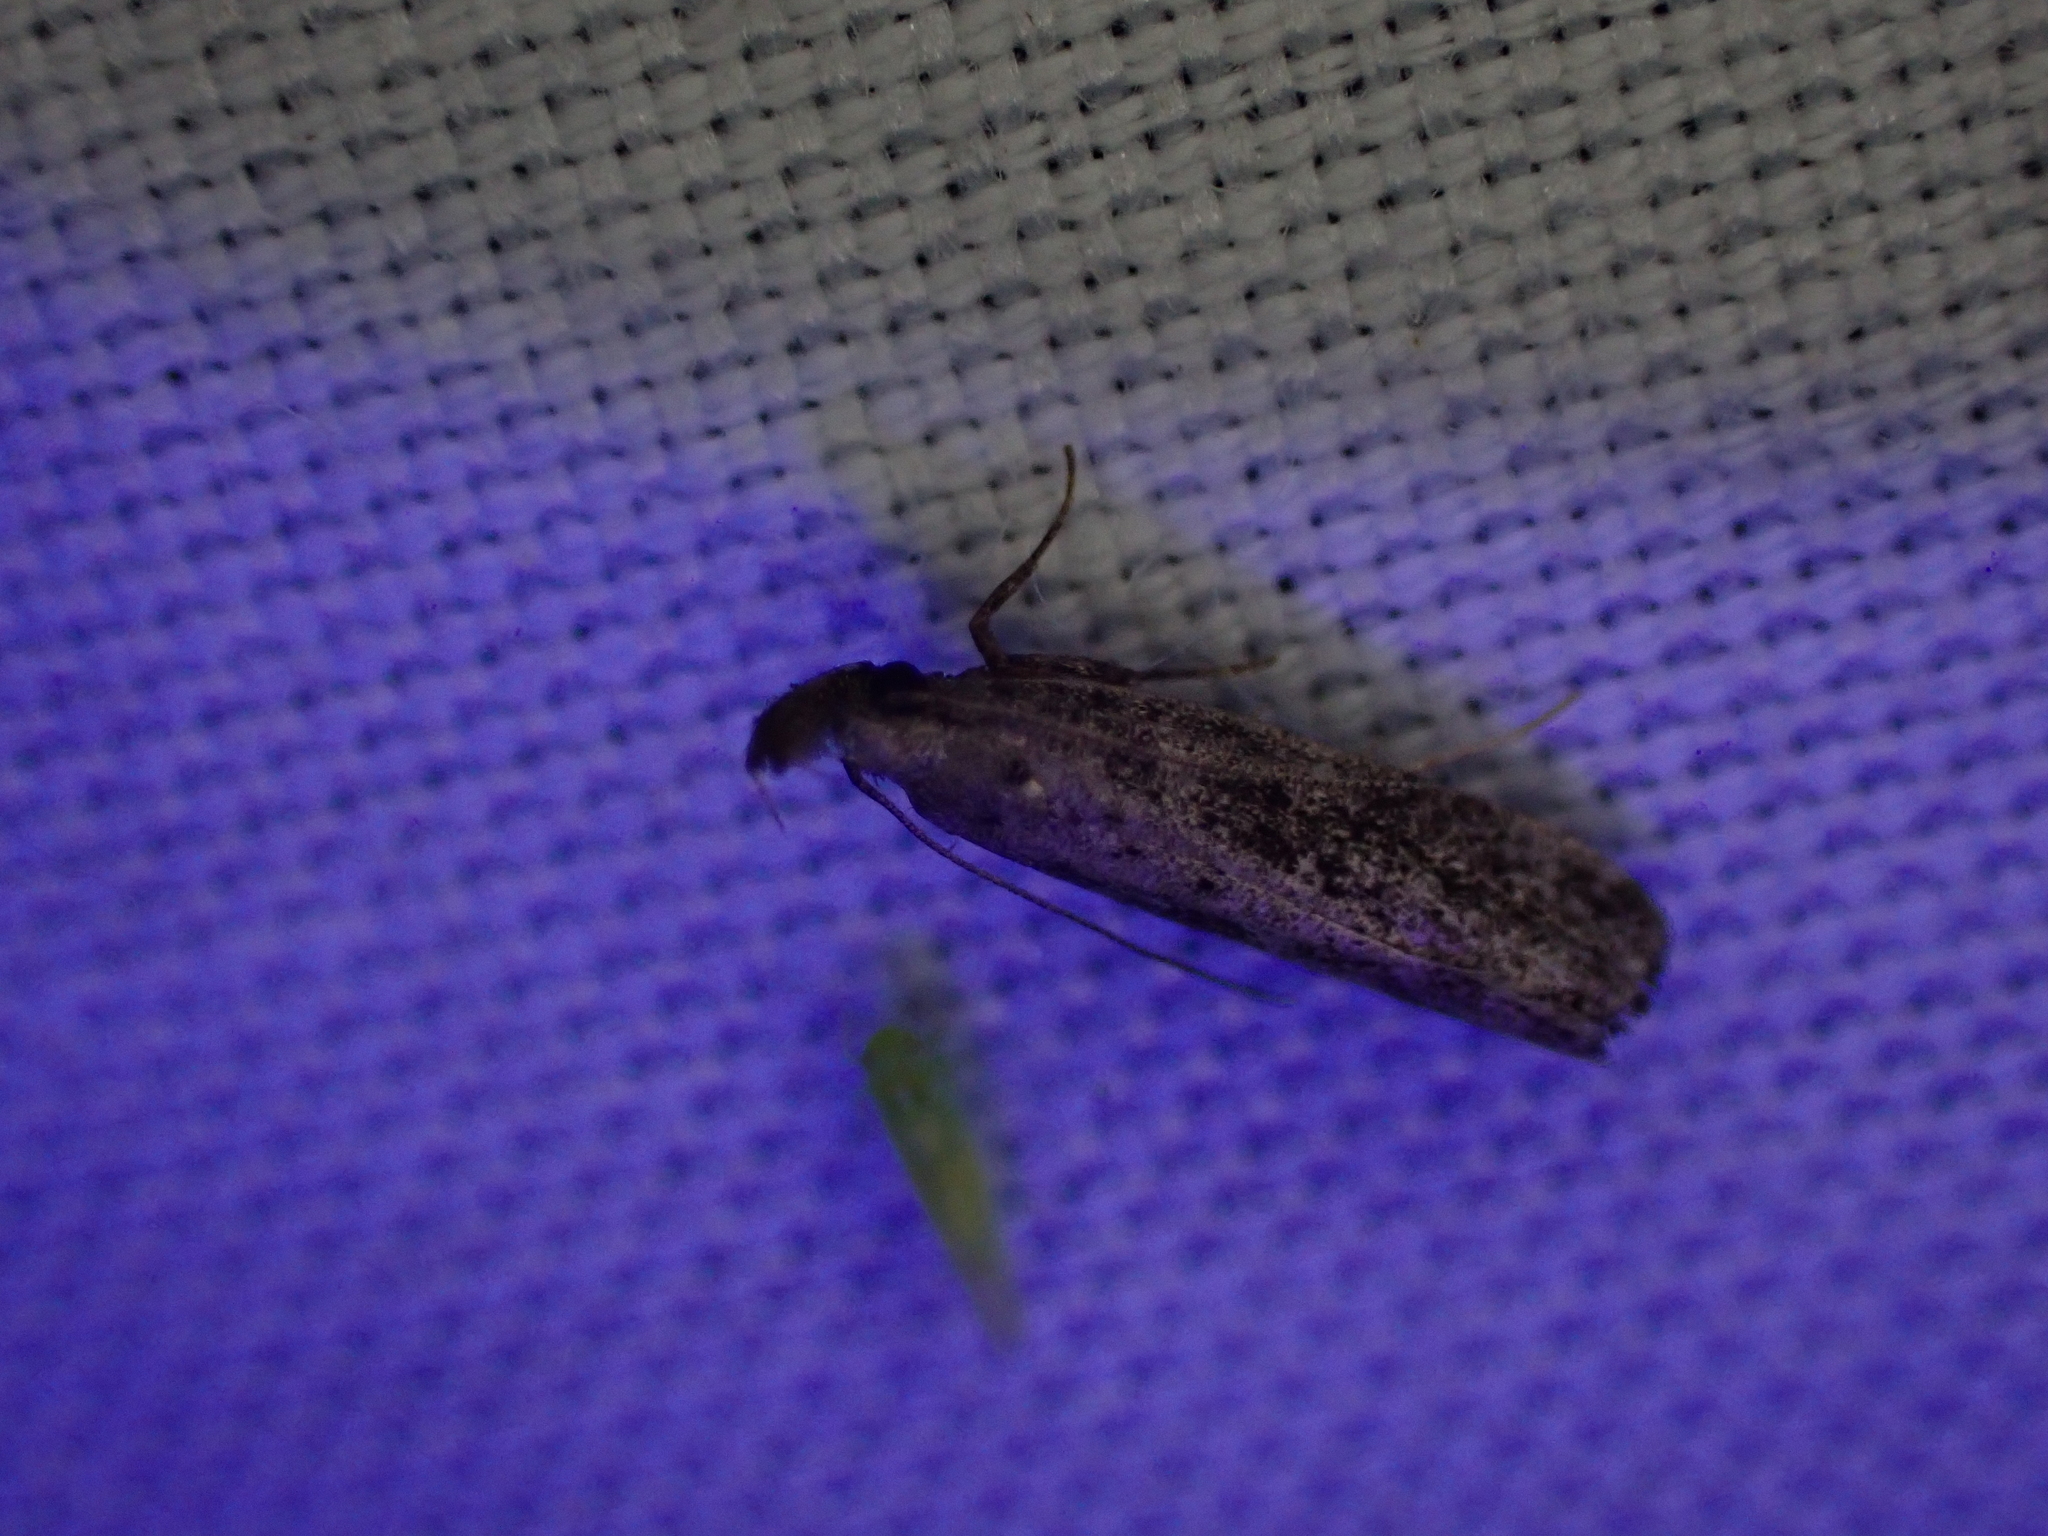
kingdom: Animalia
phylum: Arthropoda
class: Insecta
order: Lepidoptera
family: Gelechiidae
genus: Dichomeris
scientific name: Dichomeris inversella
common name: Inverse dichomeris moth
